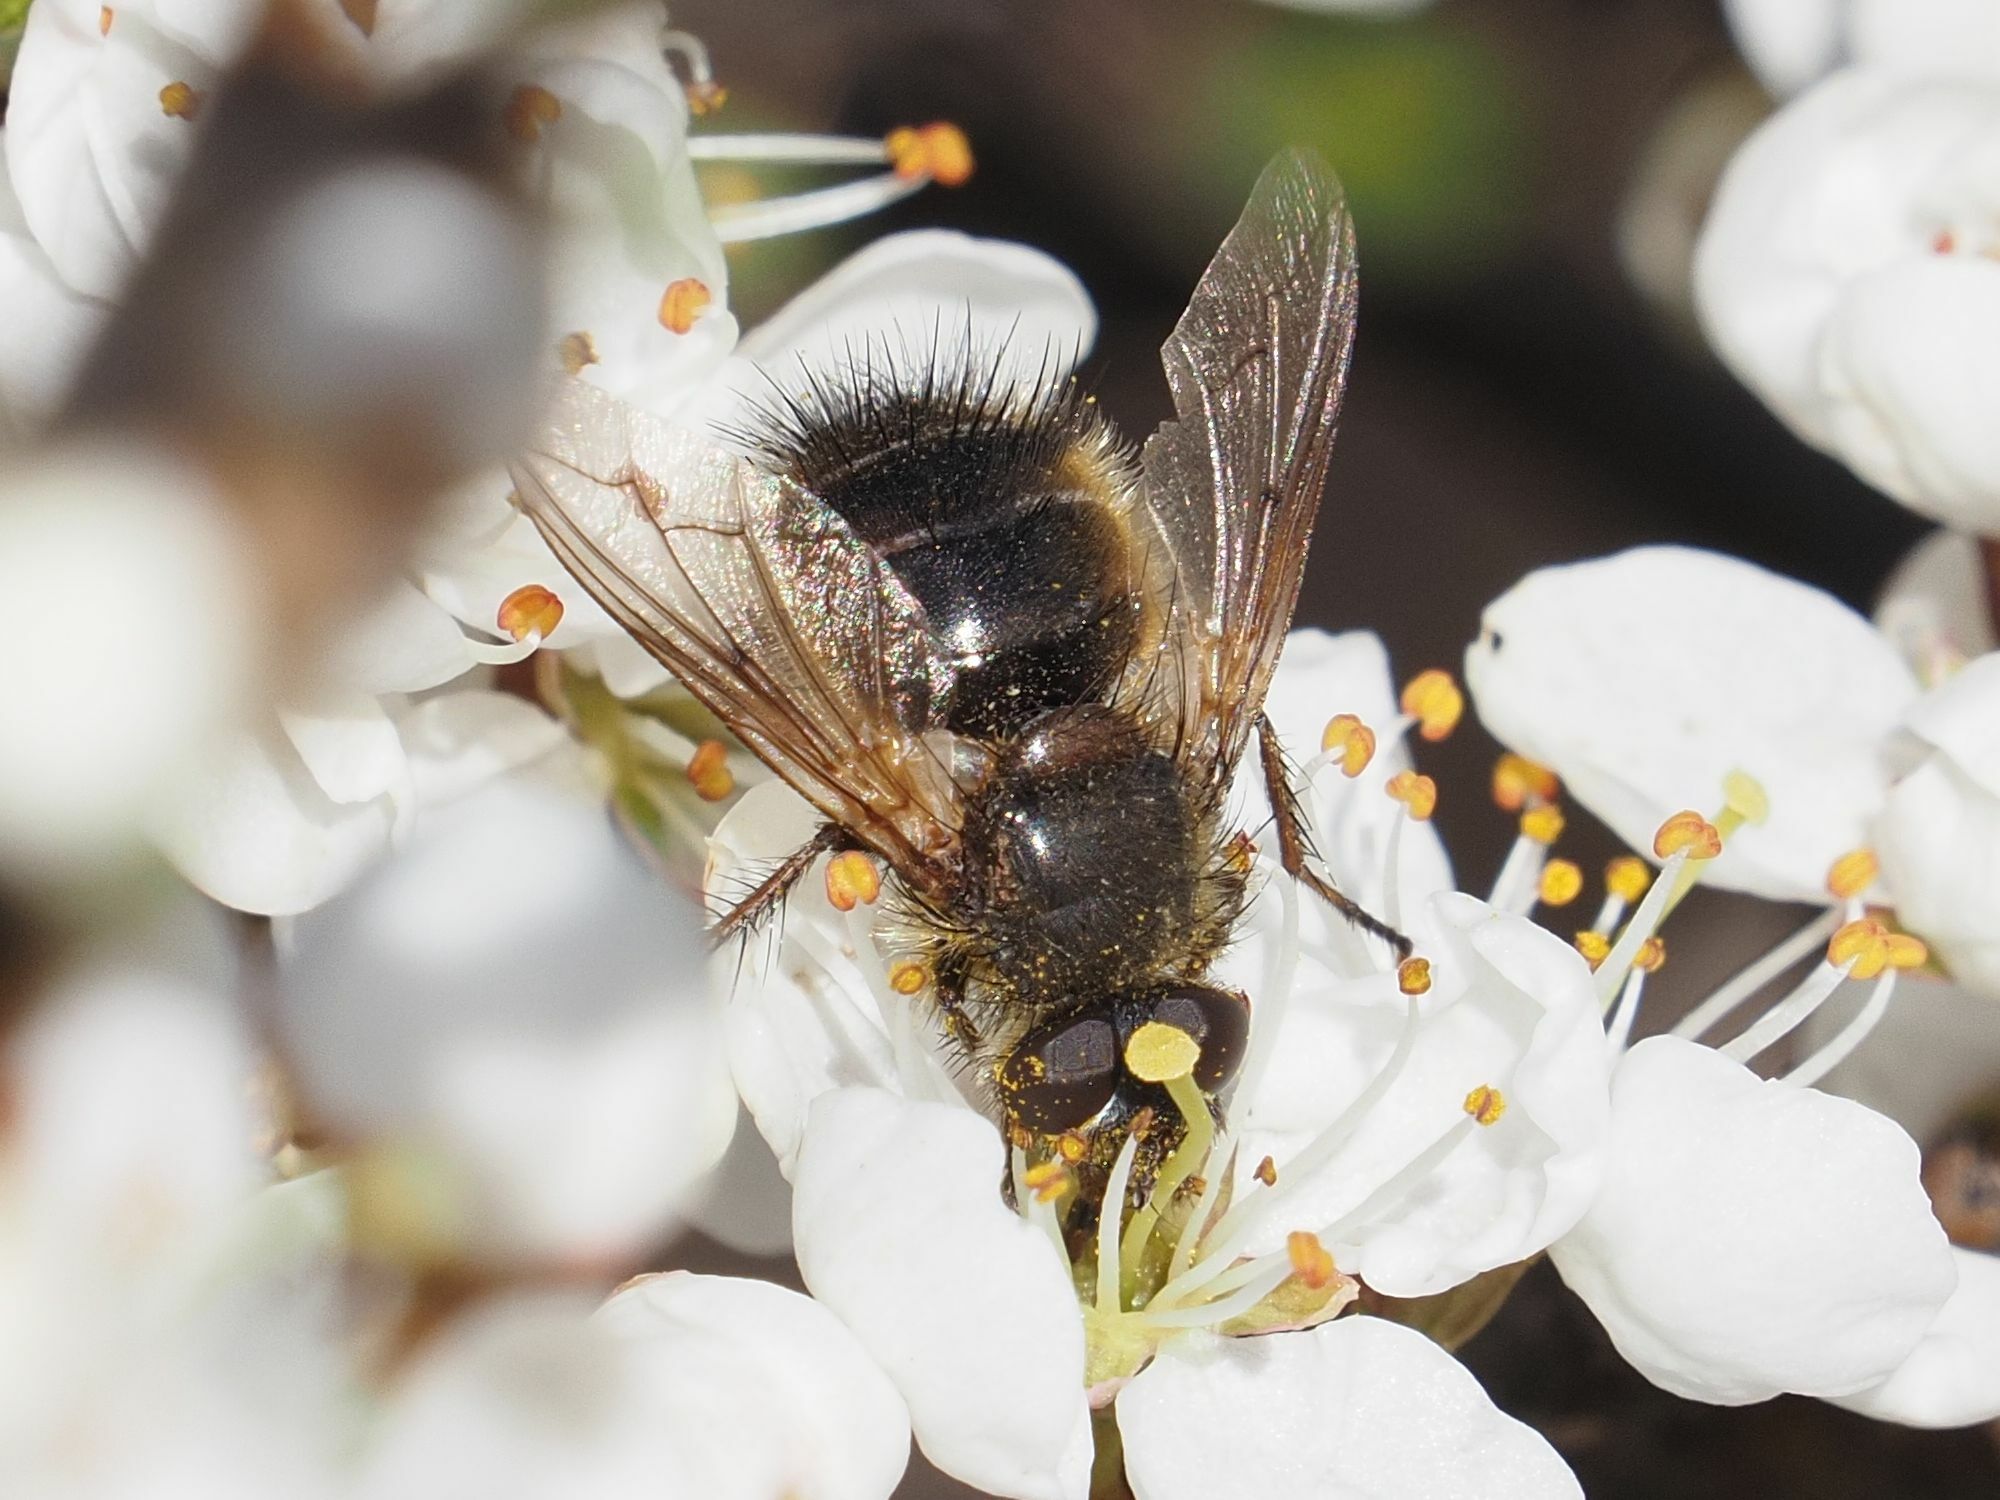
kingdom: Animalia
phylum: Arthropoda
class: Insecta
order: Diptera
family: Tachinidae
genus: Tachina
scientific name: Tachina ursina
